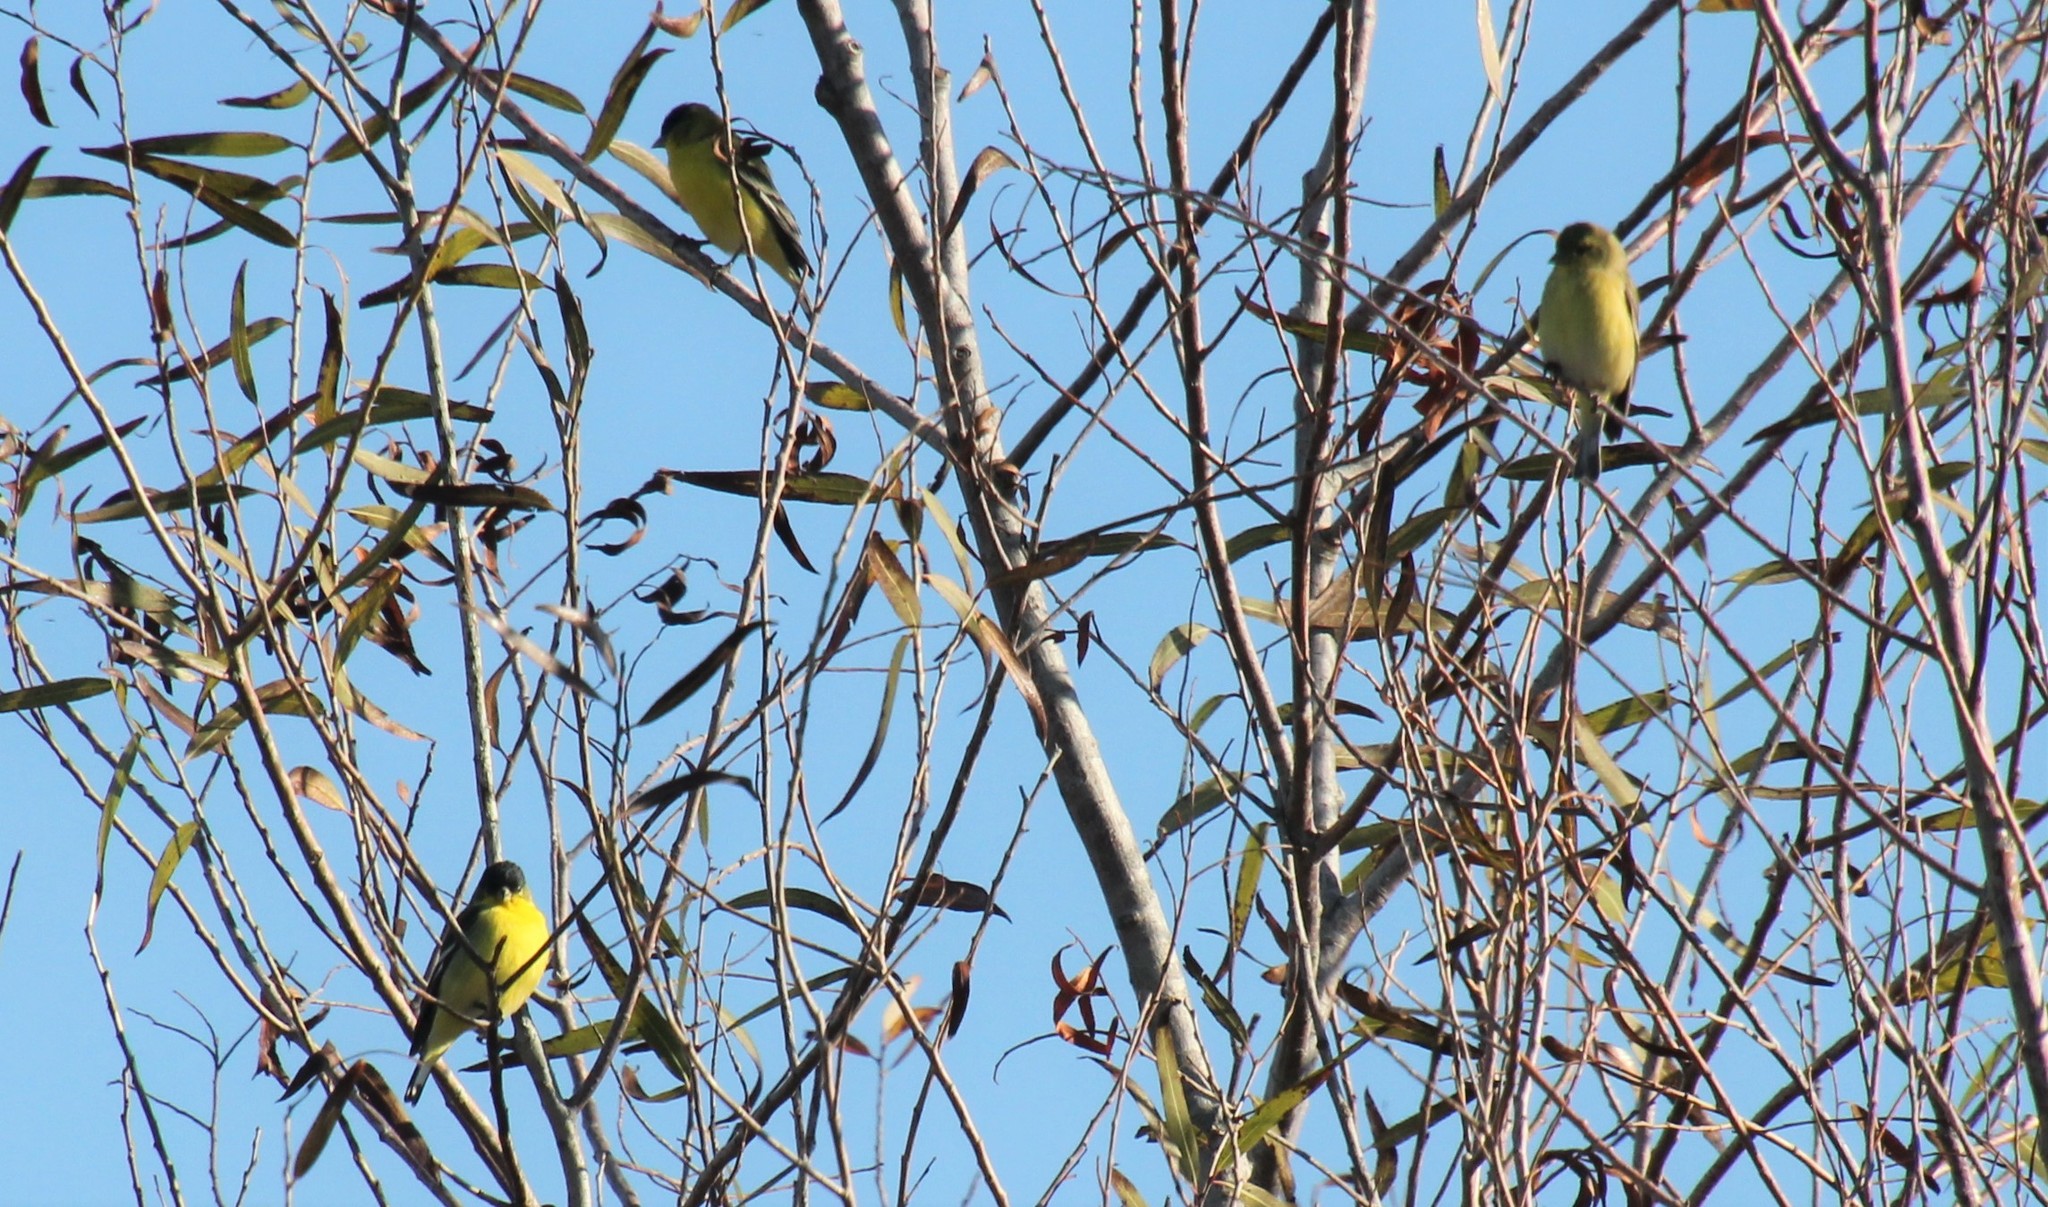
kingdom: Animalia
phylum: Chordata
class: Aves
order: Passeriformes
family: Fringillidae
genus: Spinus
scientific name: Spinus psaltria
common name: Lesser goldfinch
